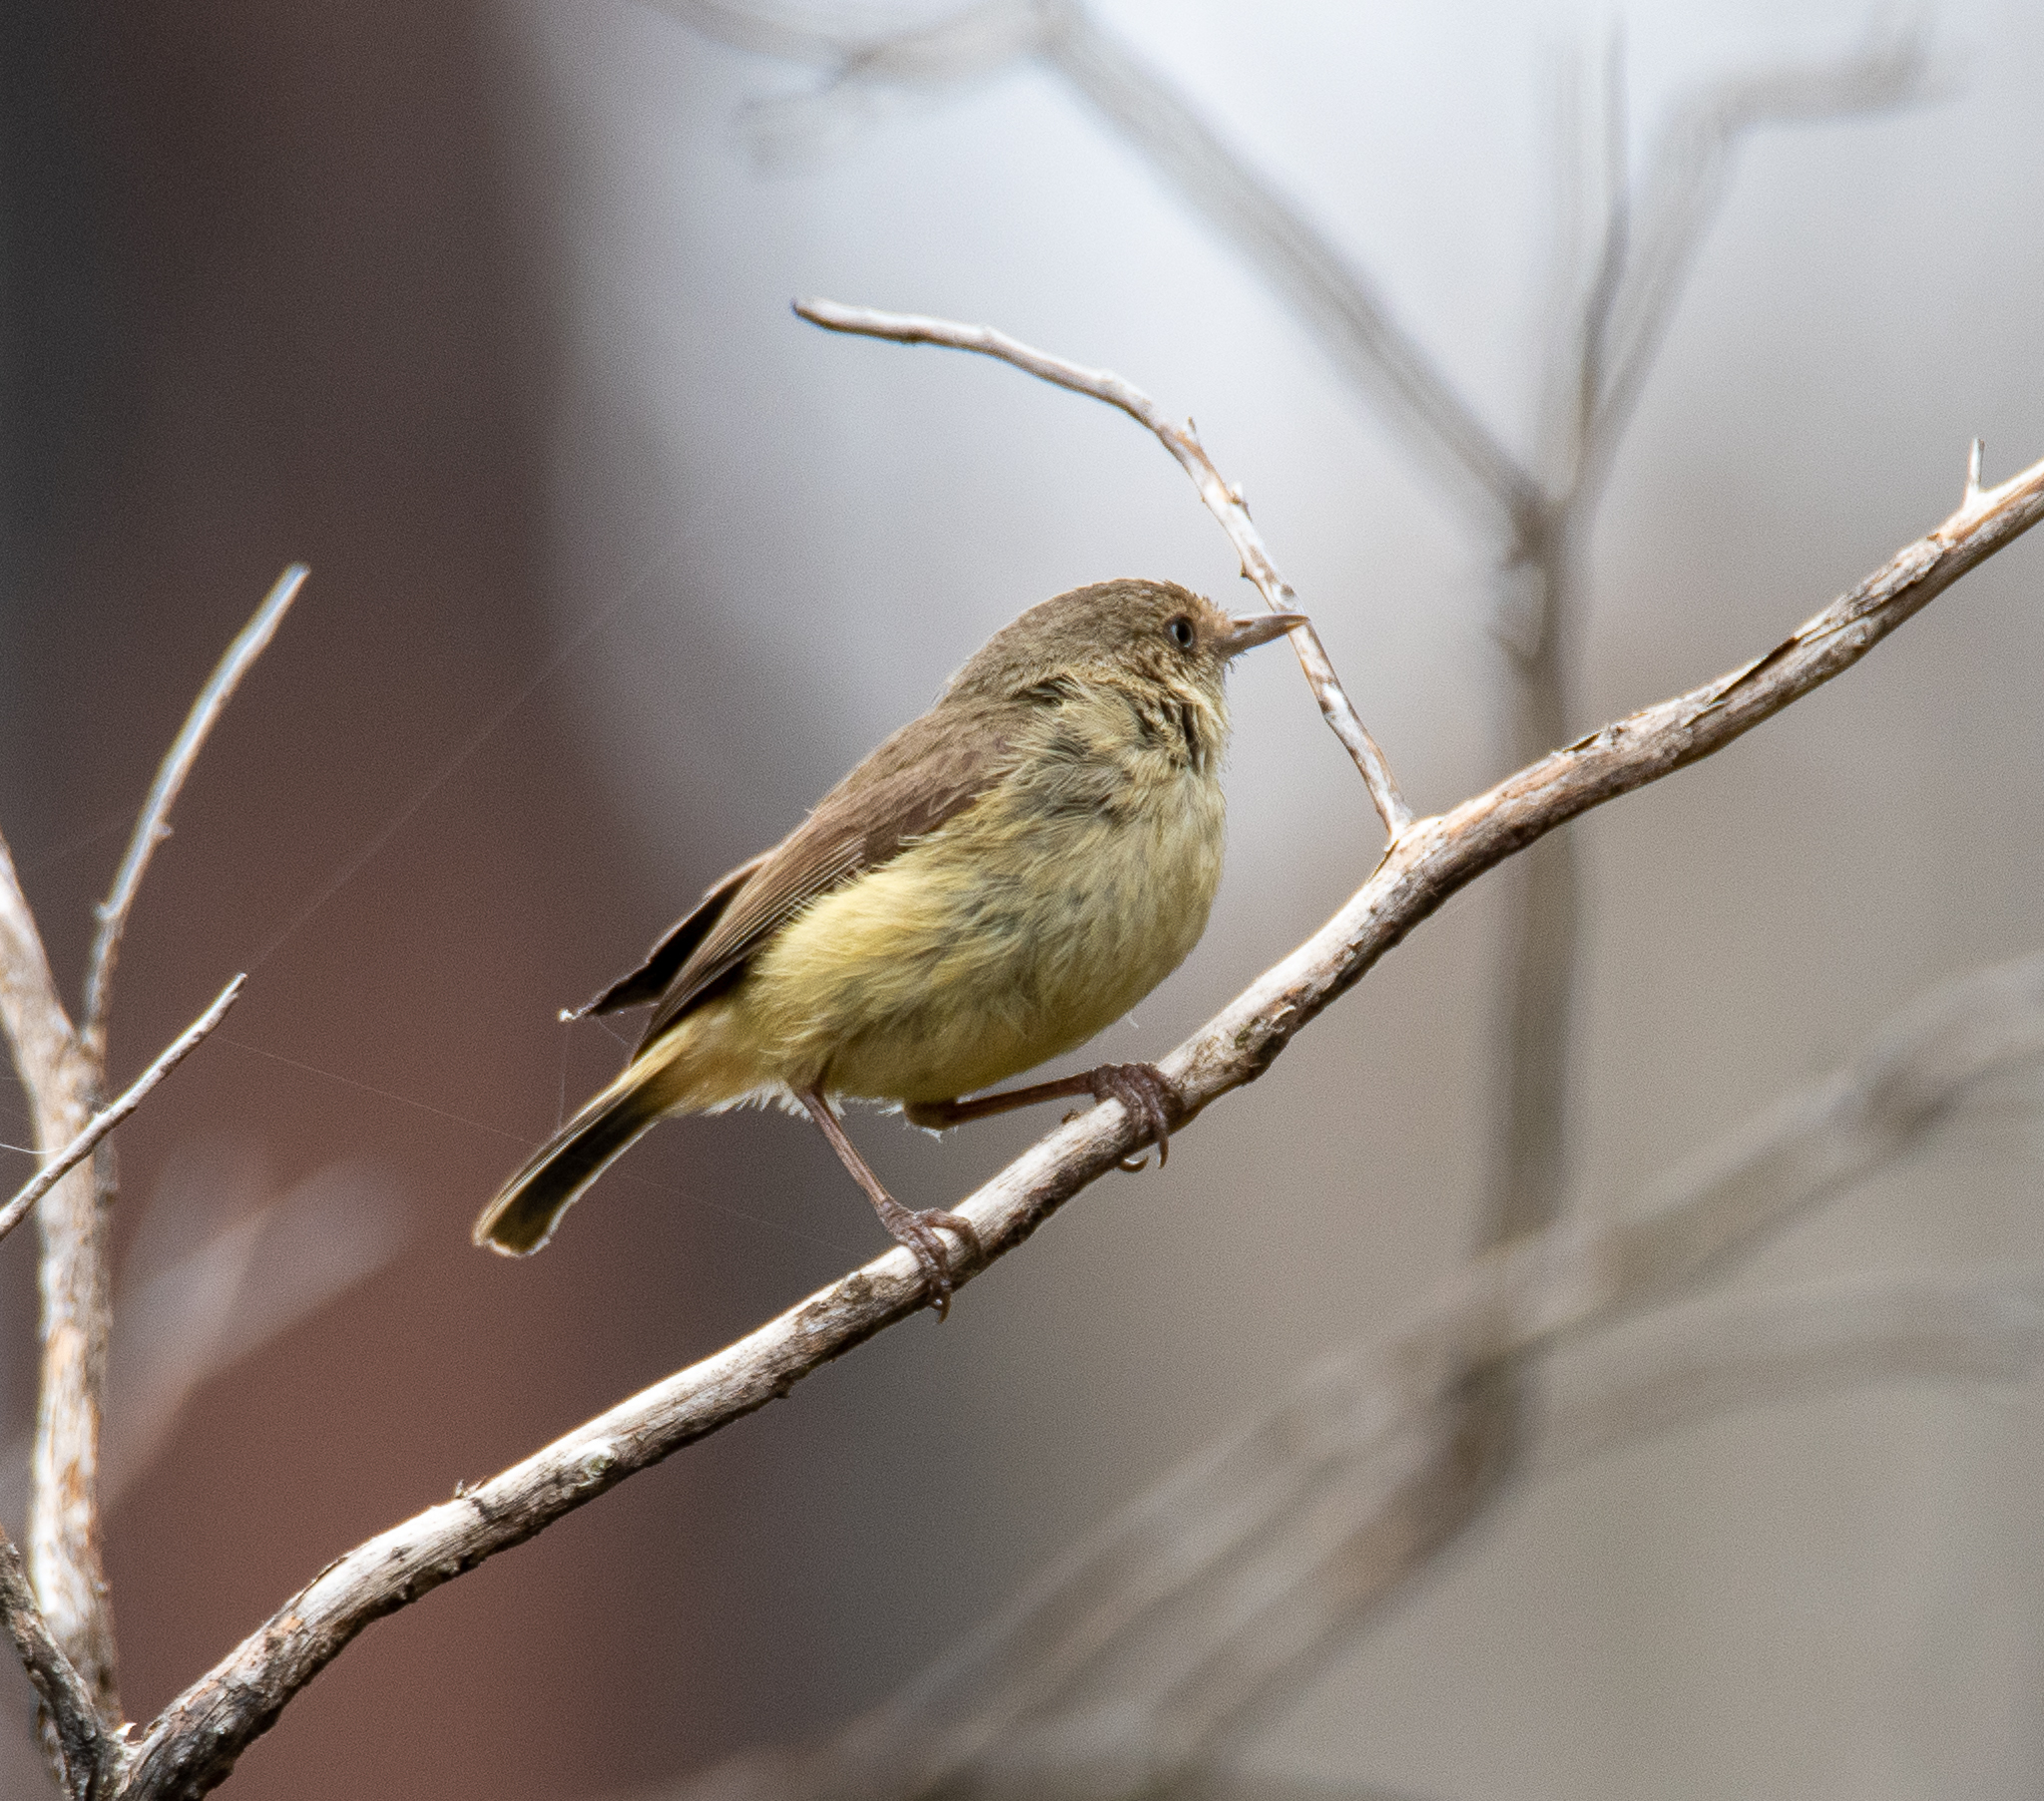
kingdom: Animalia
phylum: Chordata
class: Aves
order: Passeriformes
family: Acanthizidae
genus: Acanthiza
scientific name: Acanthiza reguloides
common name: Buff-rumped thornbill
